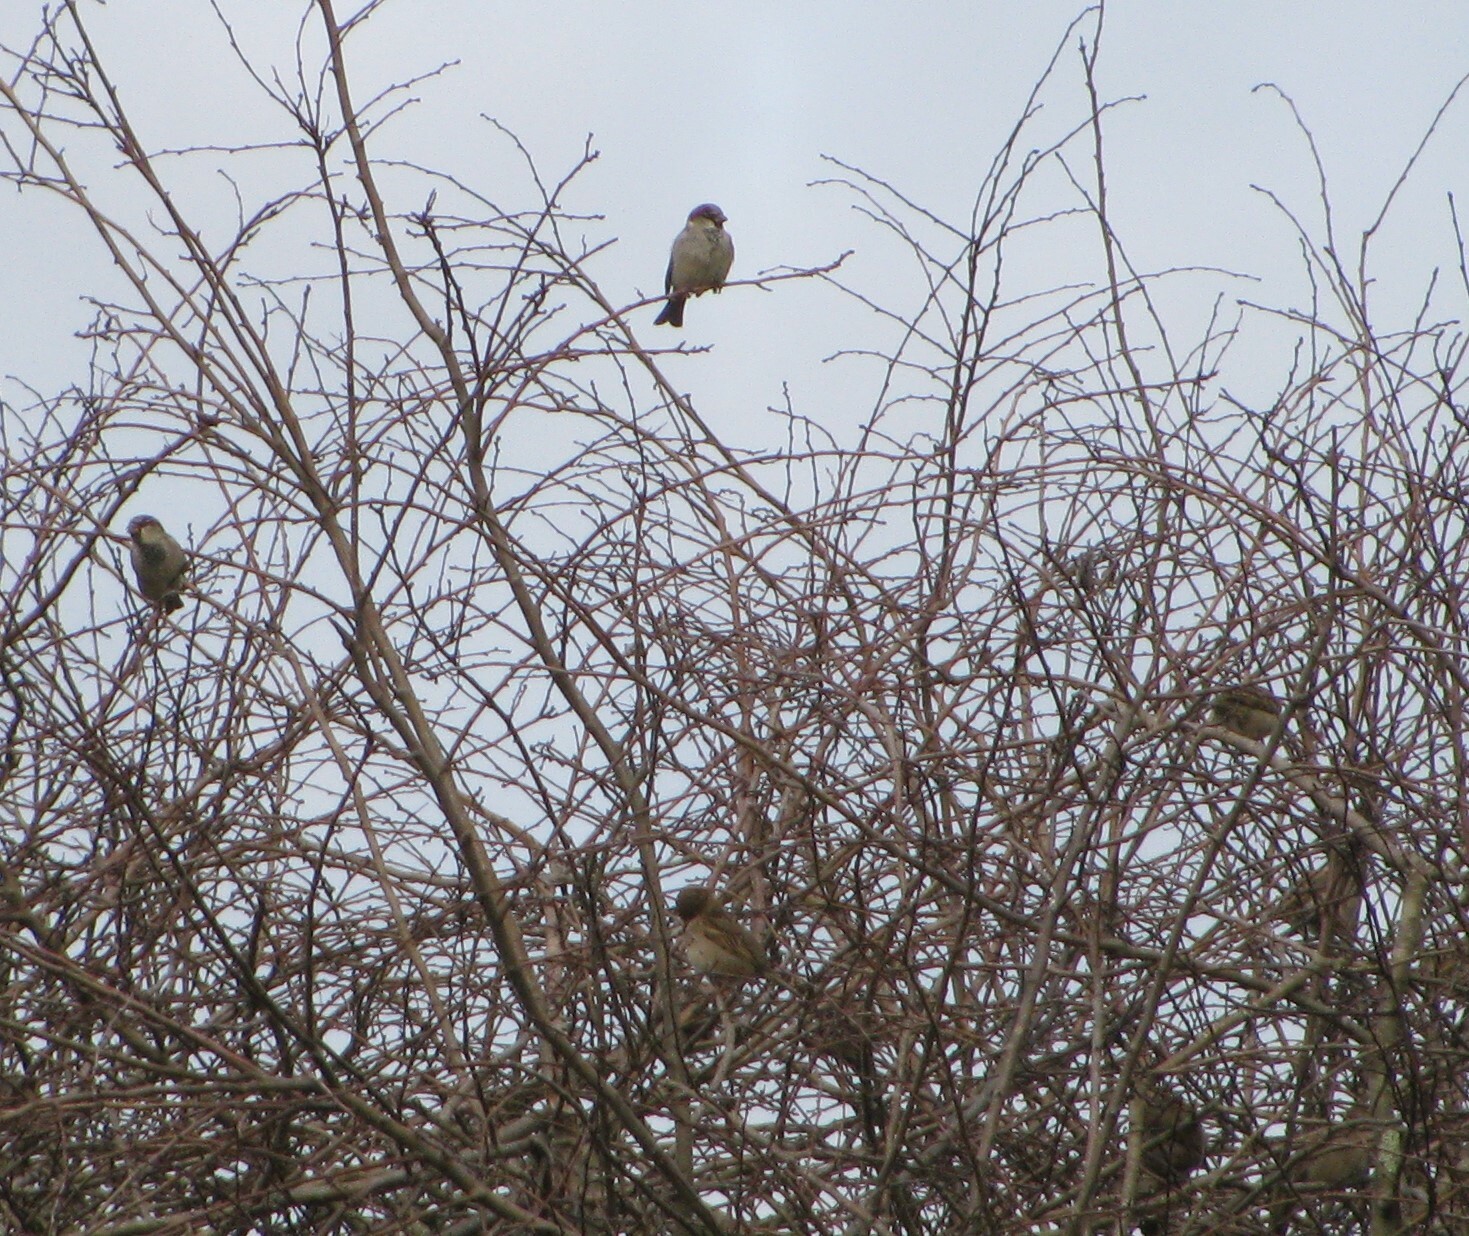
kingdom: Animalia
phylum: Chordata
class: Aves
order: Passeriformes
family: Passeridae
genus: Passer
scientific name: Passer domesticus
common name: House sparrow
